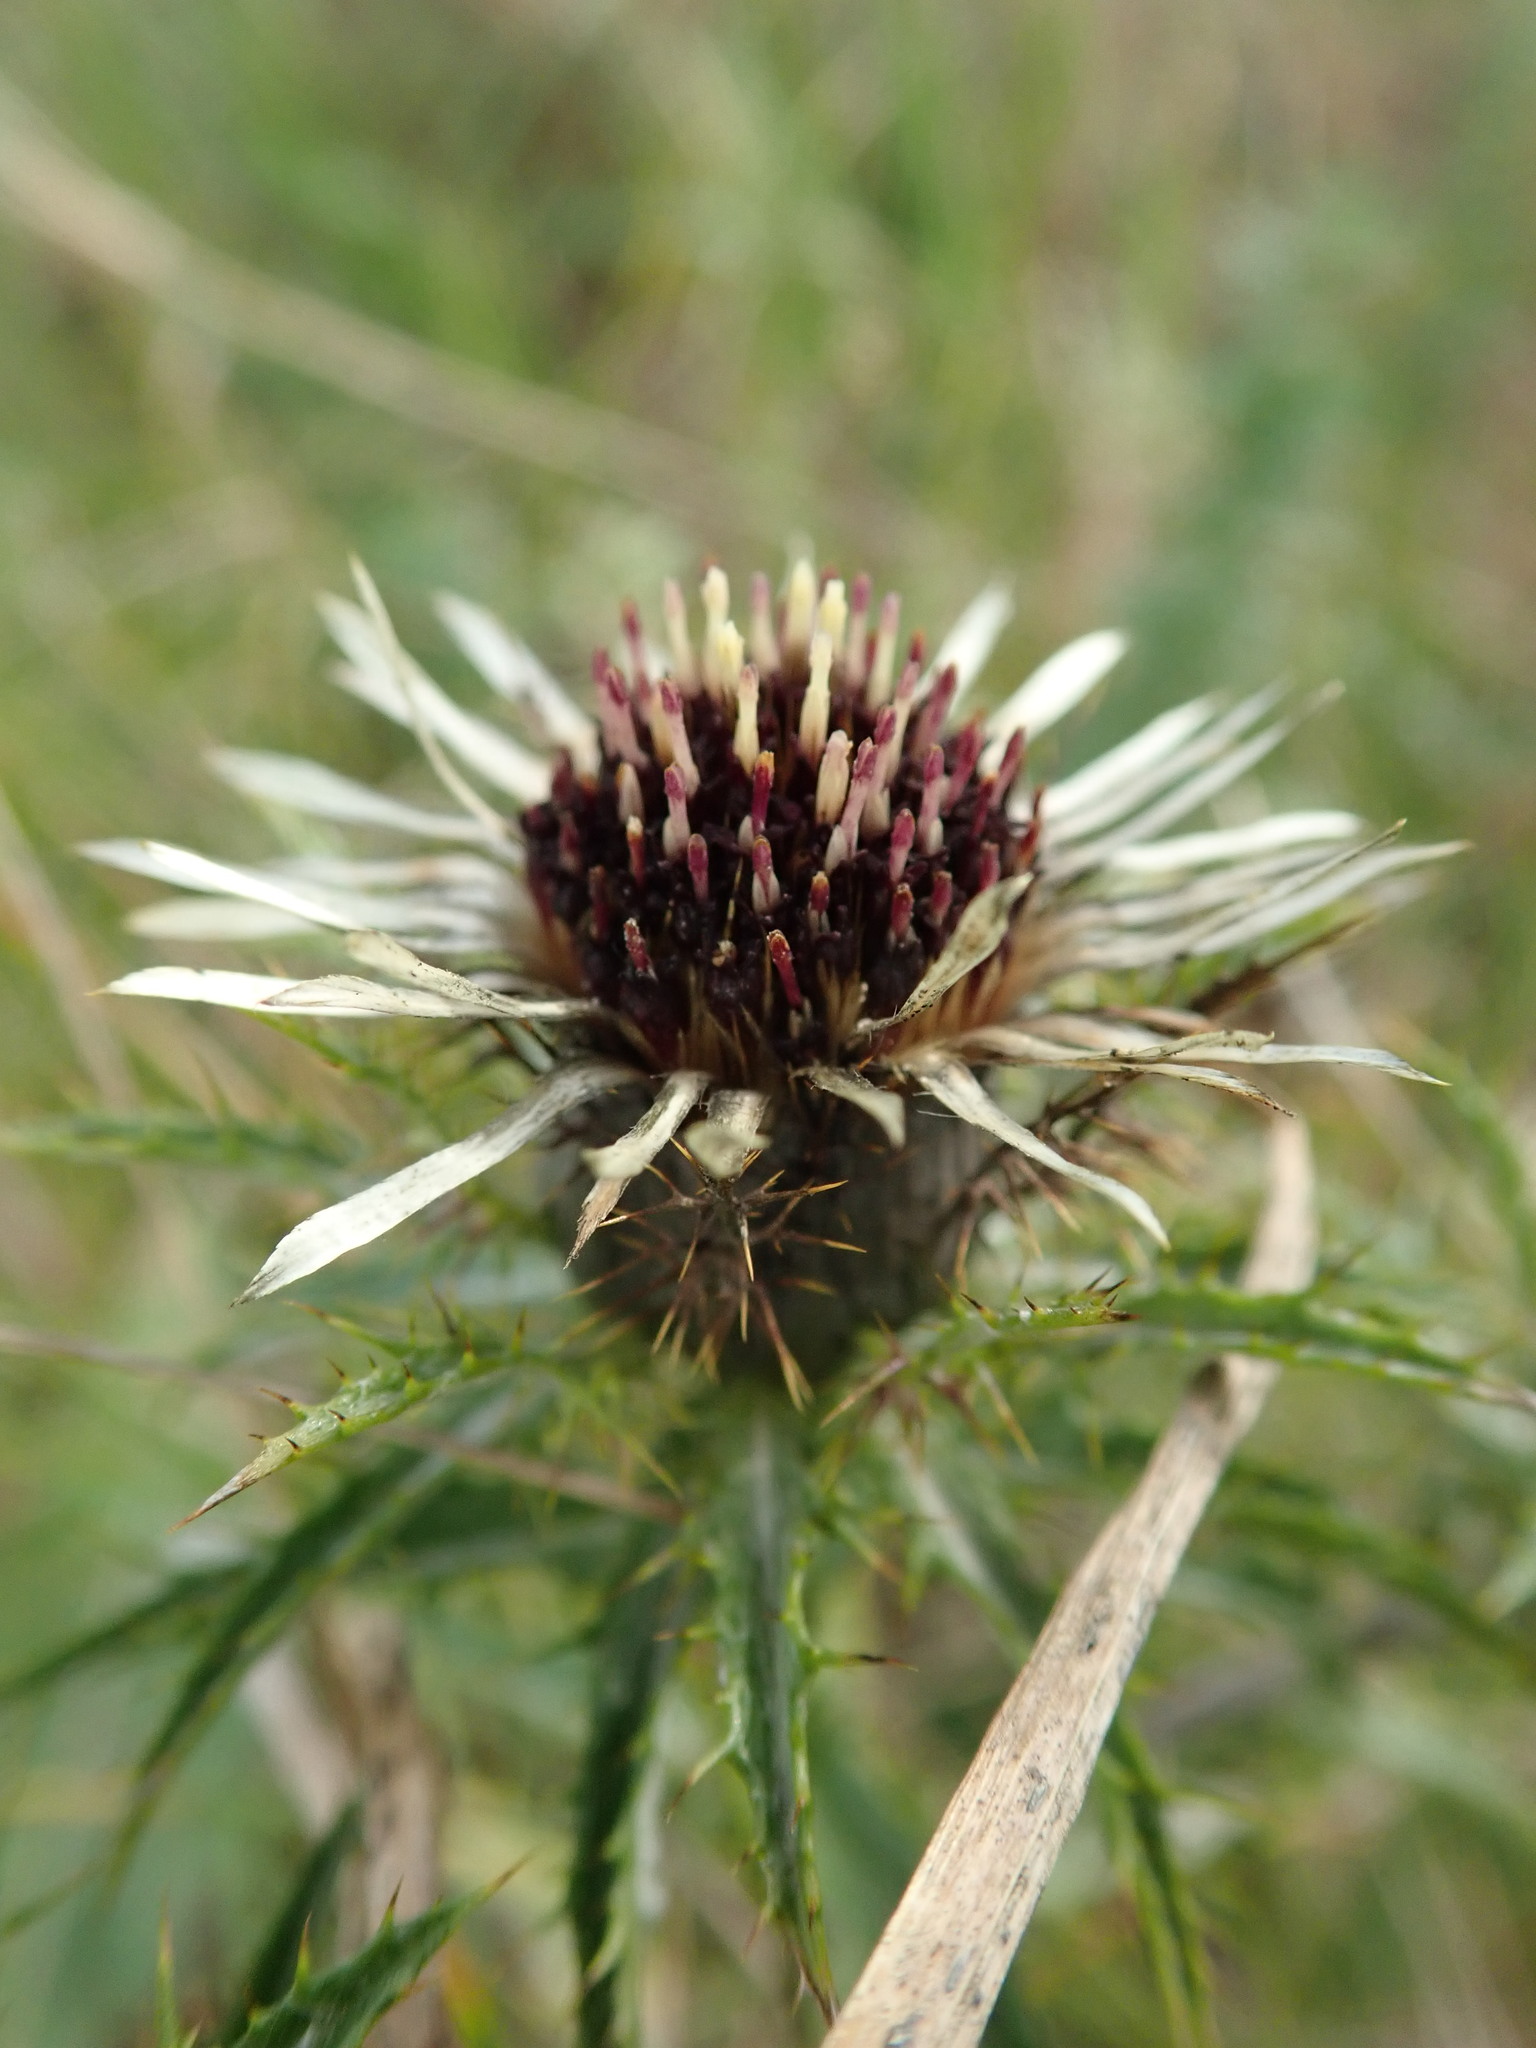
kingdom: Plantae
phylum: Tracheophyta
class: Magnoliopsida
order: Asterales
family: Asteraceae
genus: Carlina
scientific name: Carlina vulgaris
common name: Carline thistle
